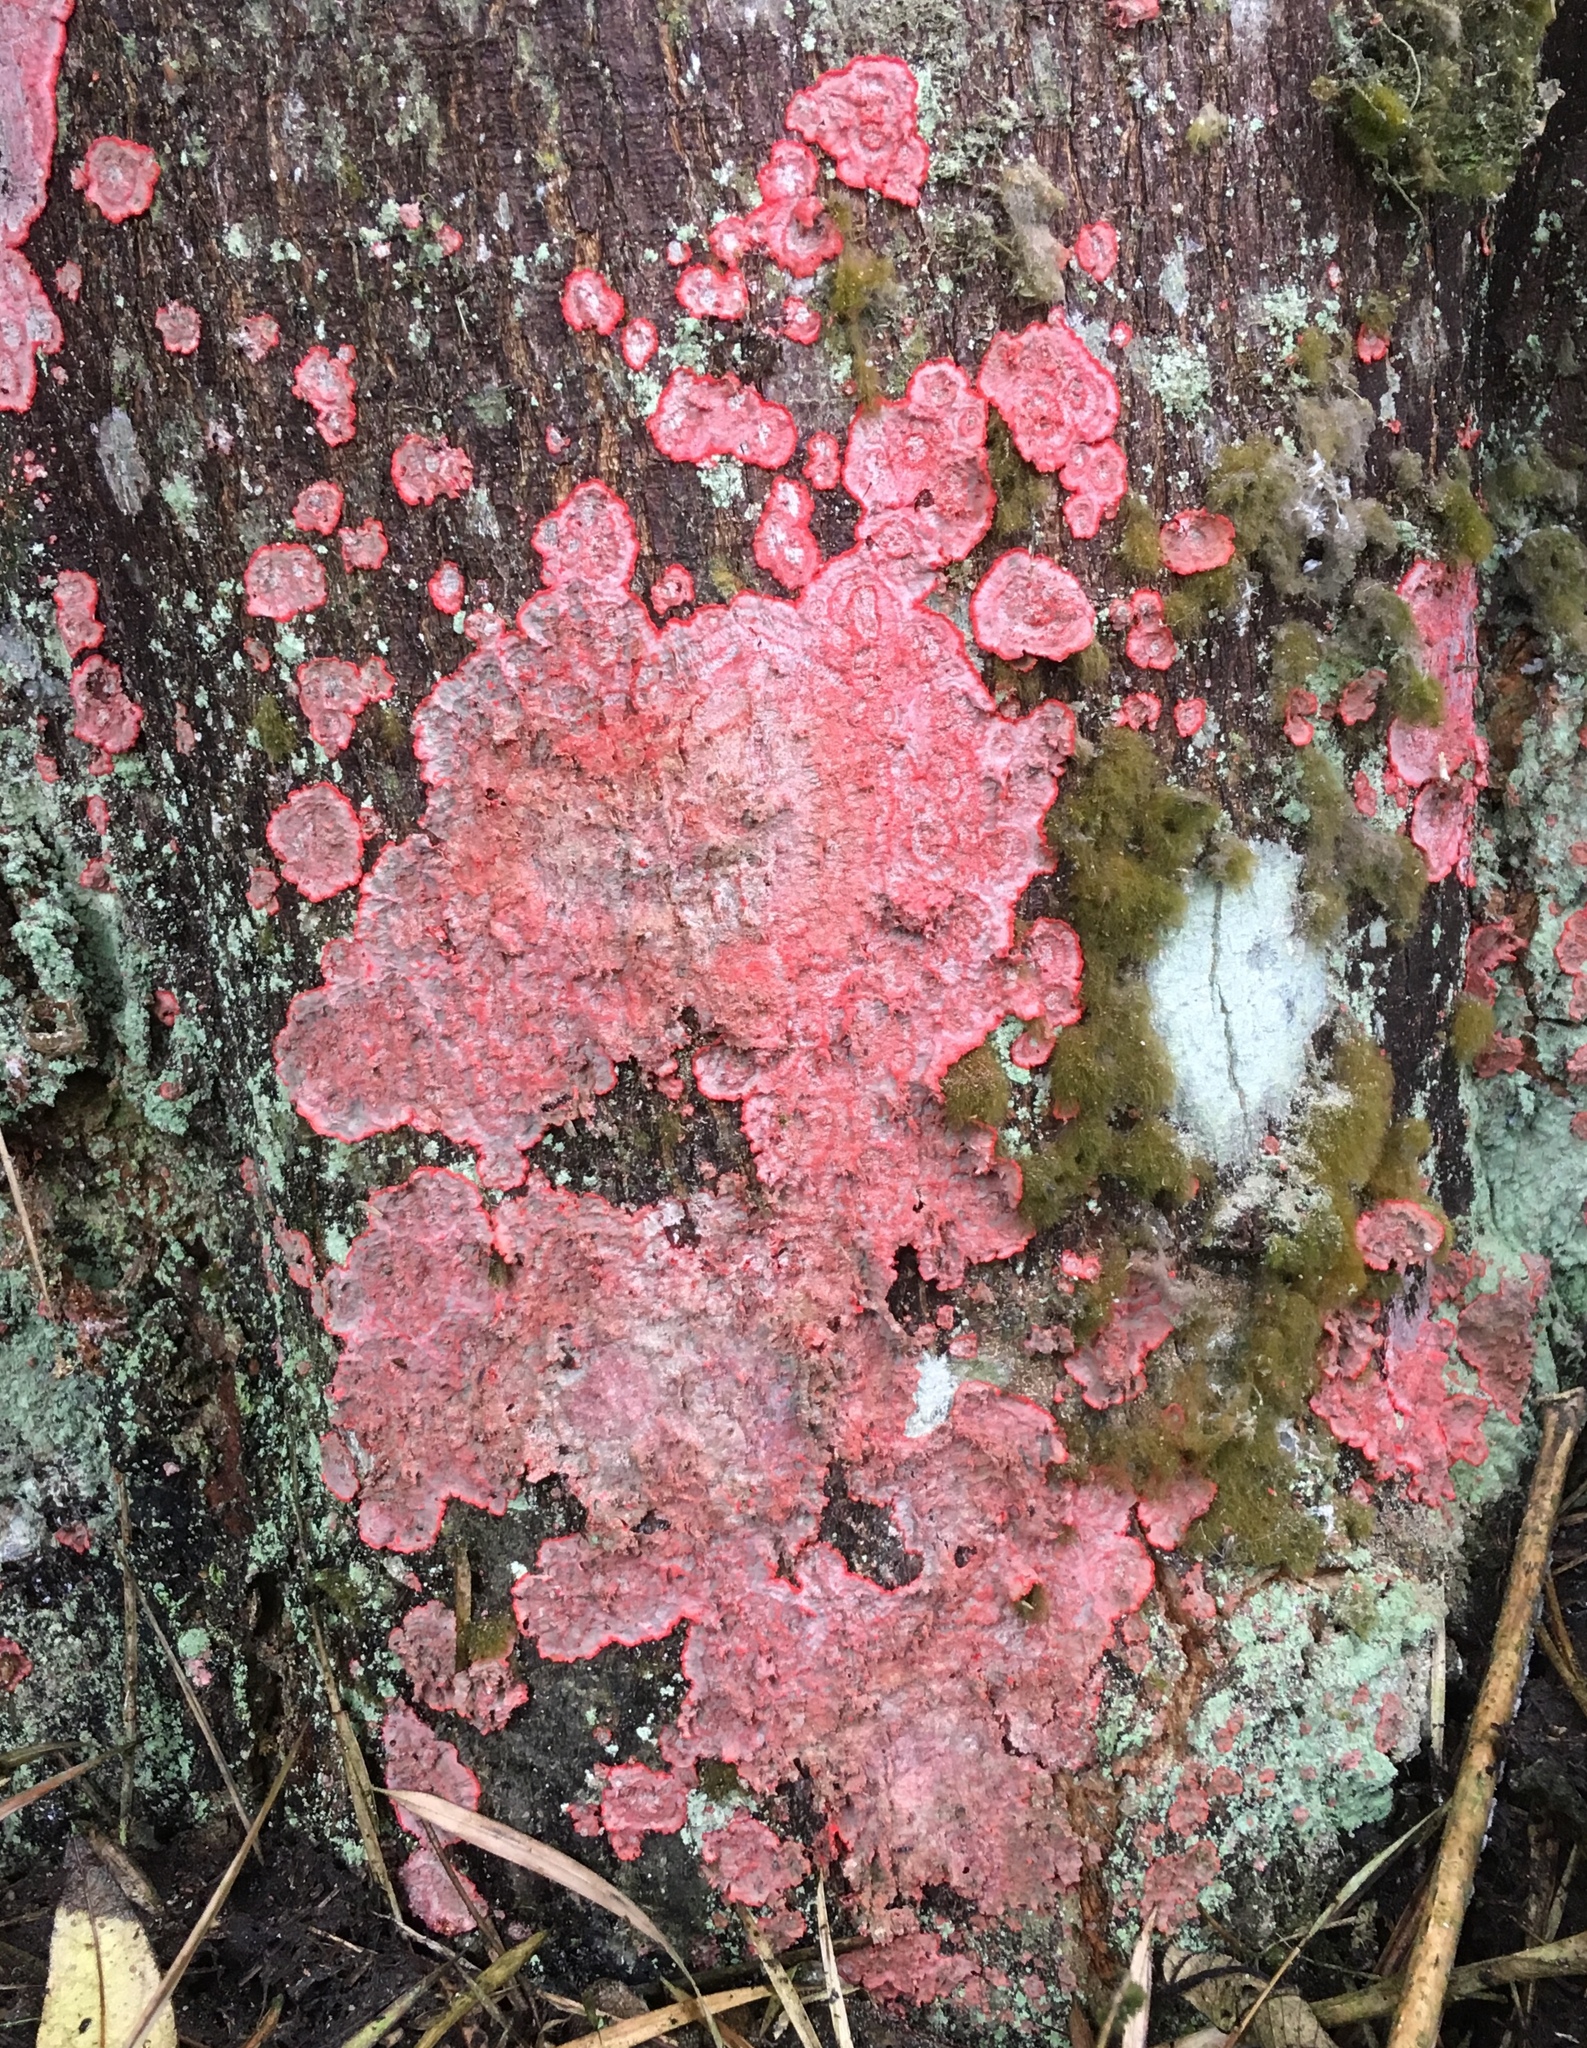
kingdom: Fungi
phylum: Ascomycota
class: Arthoniomycetes
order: Arthoniales
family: Arthoniaceae
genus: Herpothallon
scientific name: Herpothallon rubrocinctum
